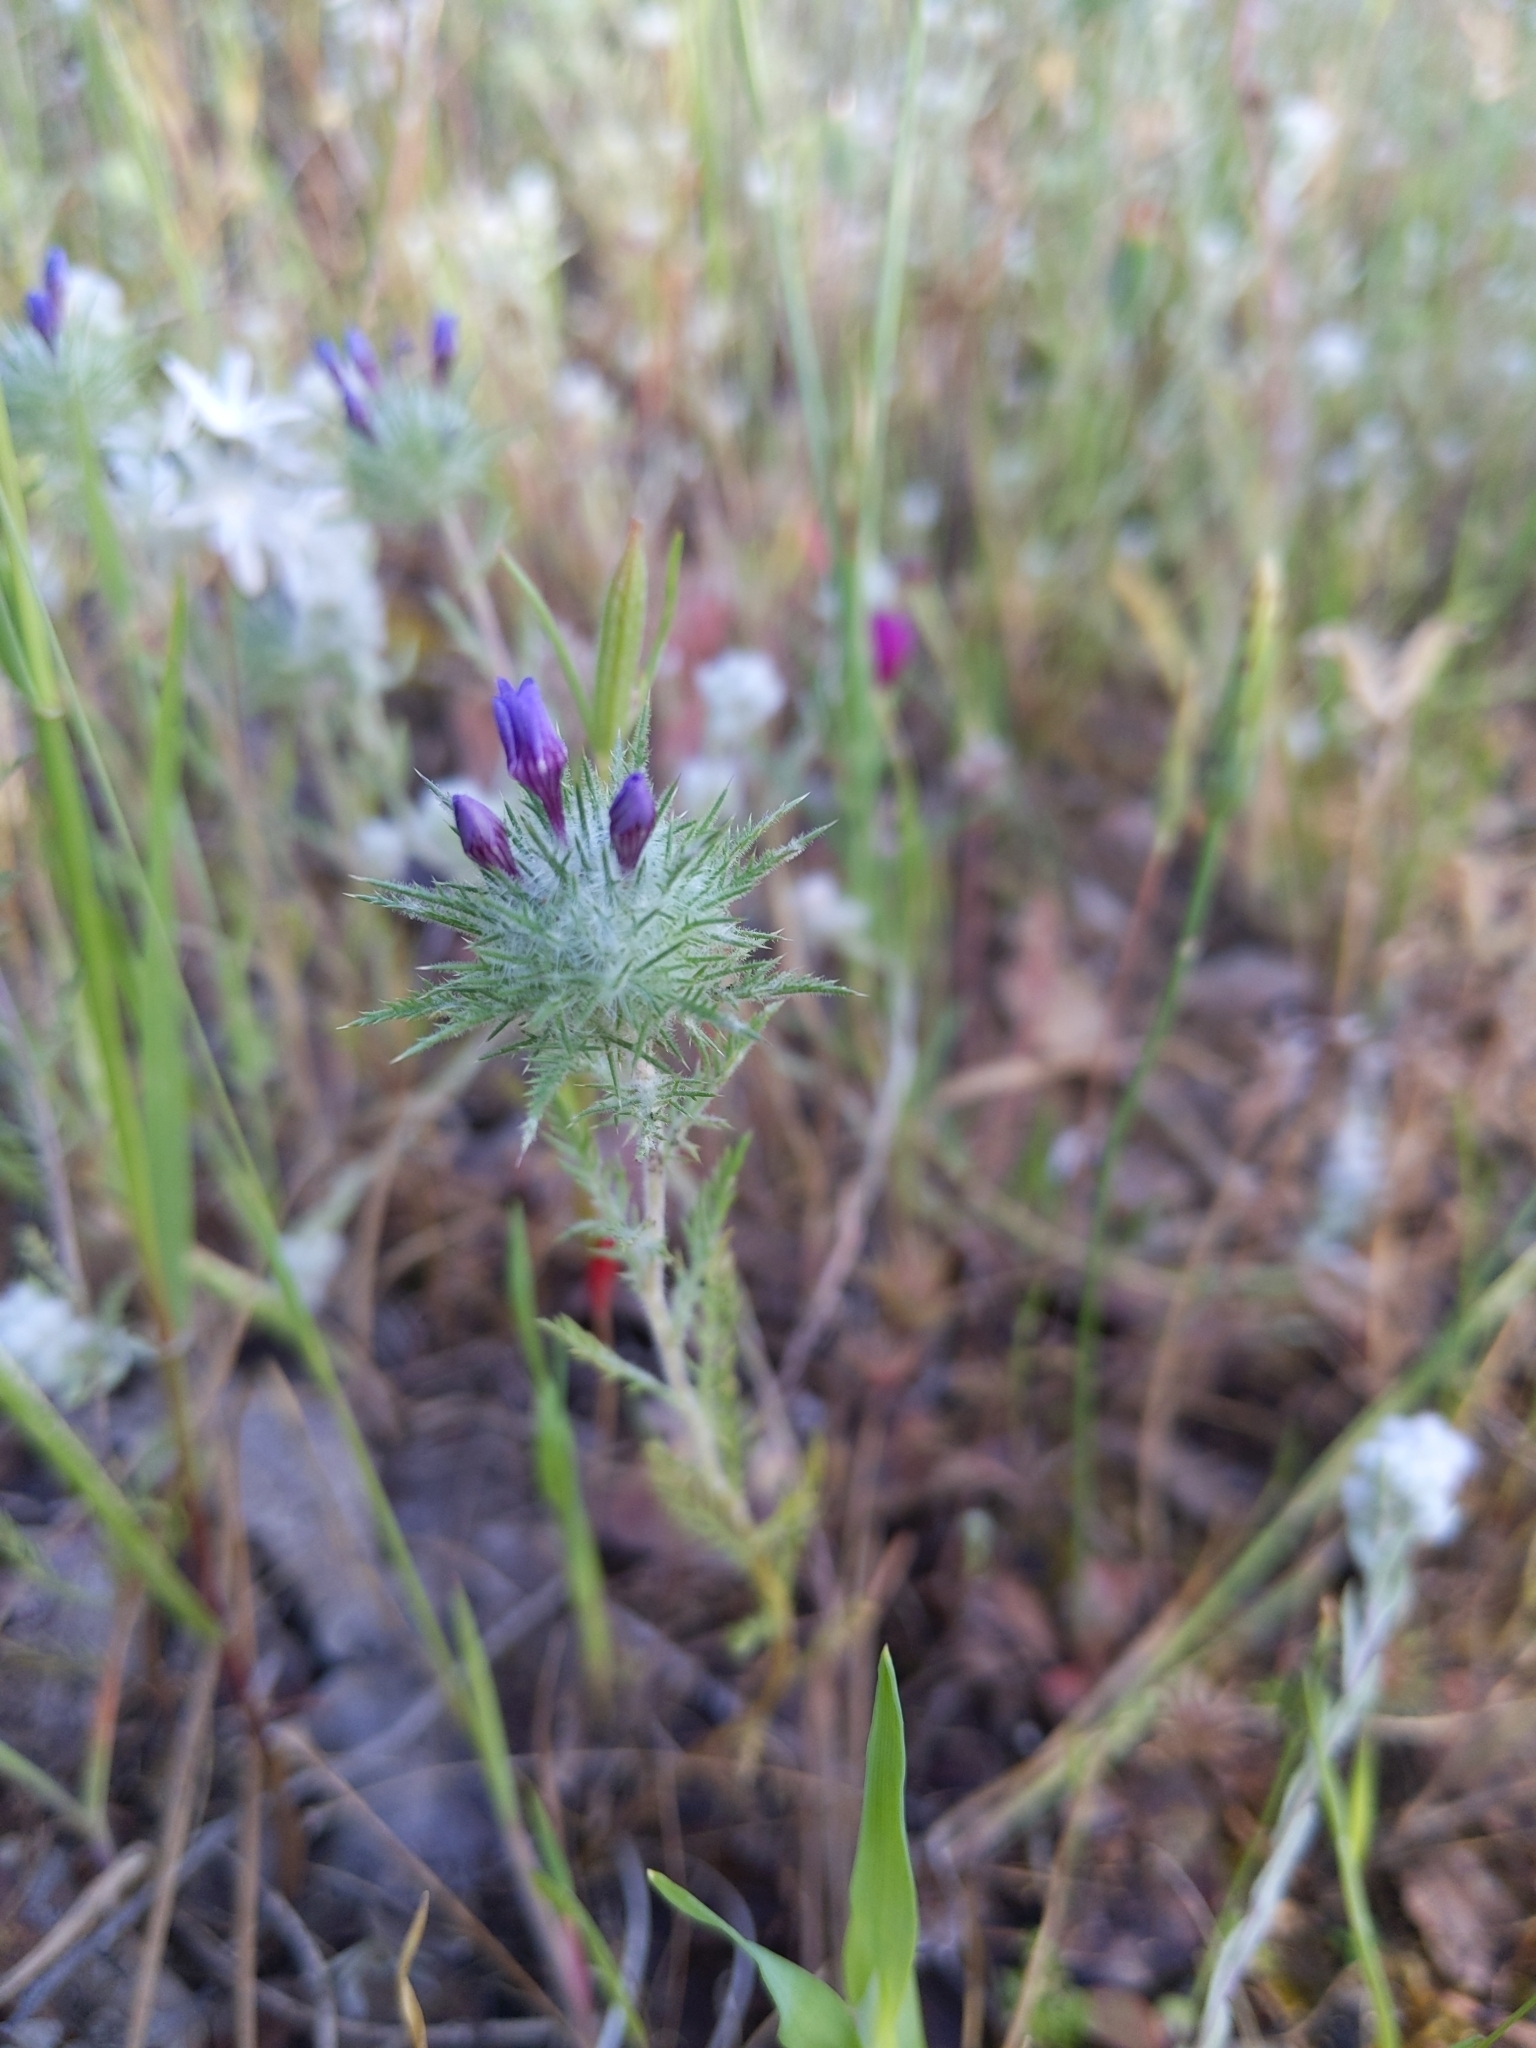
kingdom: Plantae
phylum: Tracheophyta
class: Magnoliopsida
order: Ericales
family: Polemoniaceae
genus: Navarretia
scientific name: Navarretia pubescens
